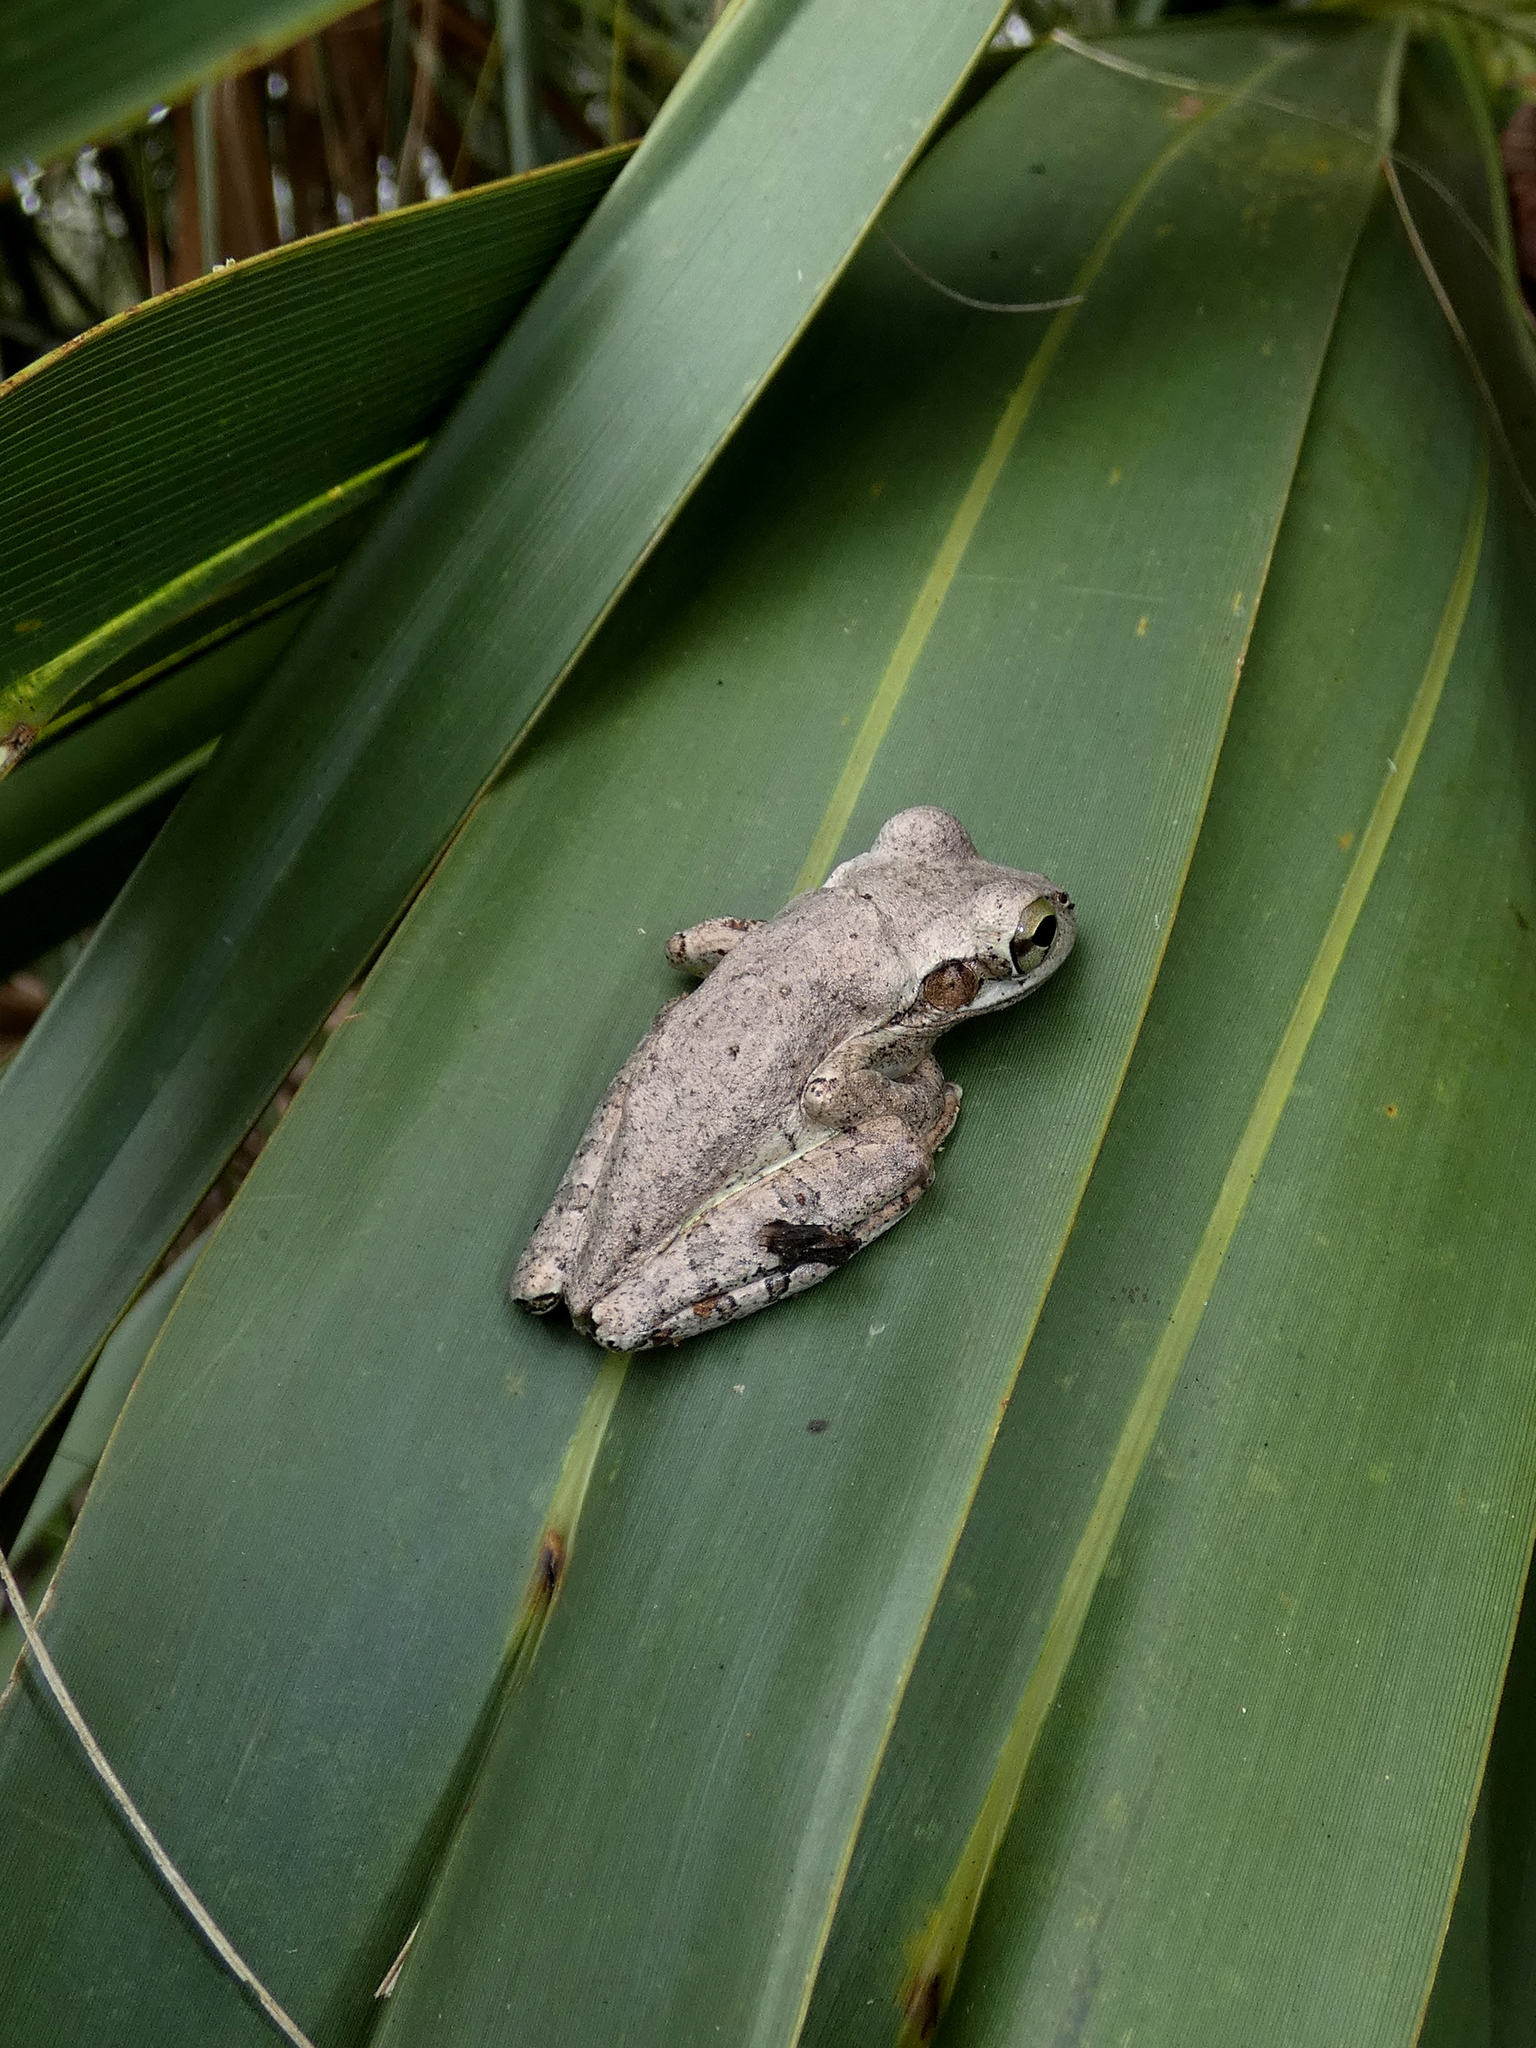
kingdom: Animalia
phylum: Chordata
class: Amphibia
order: Anura
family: Hylidae
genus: Osteopilus
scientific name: Osteopilus septentrionalis
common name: Cuban treefrog
